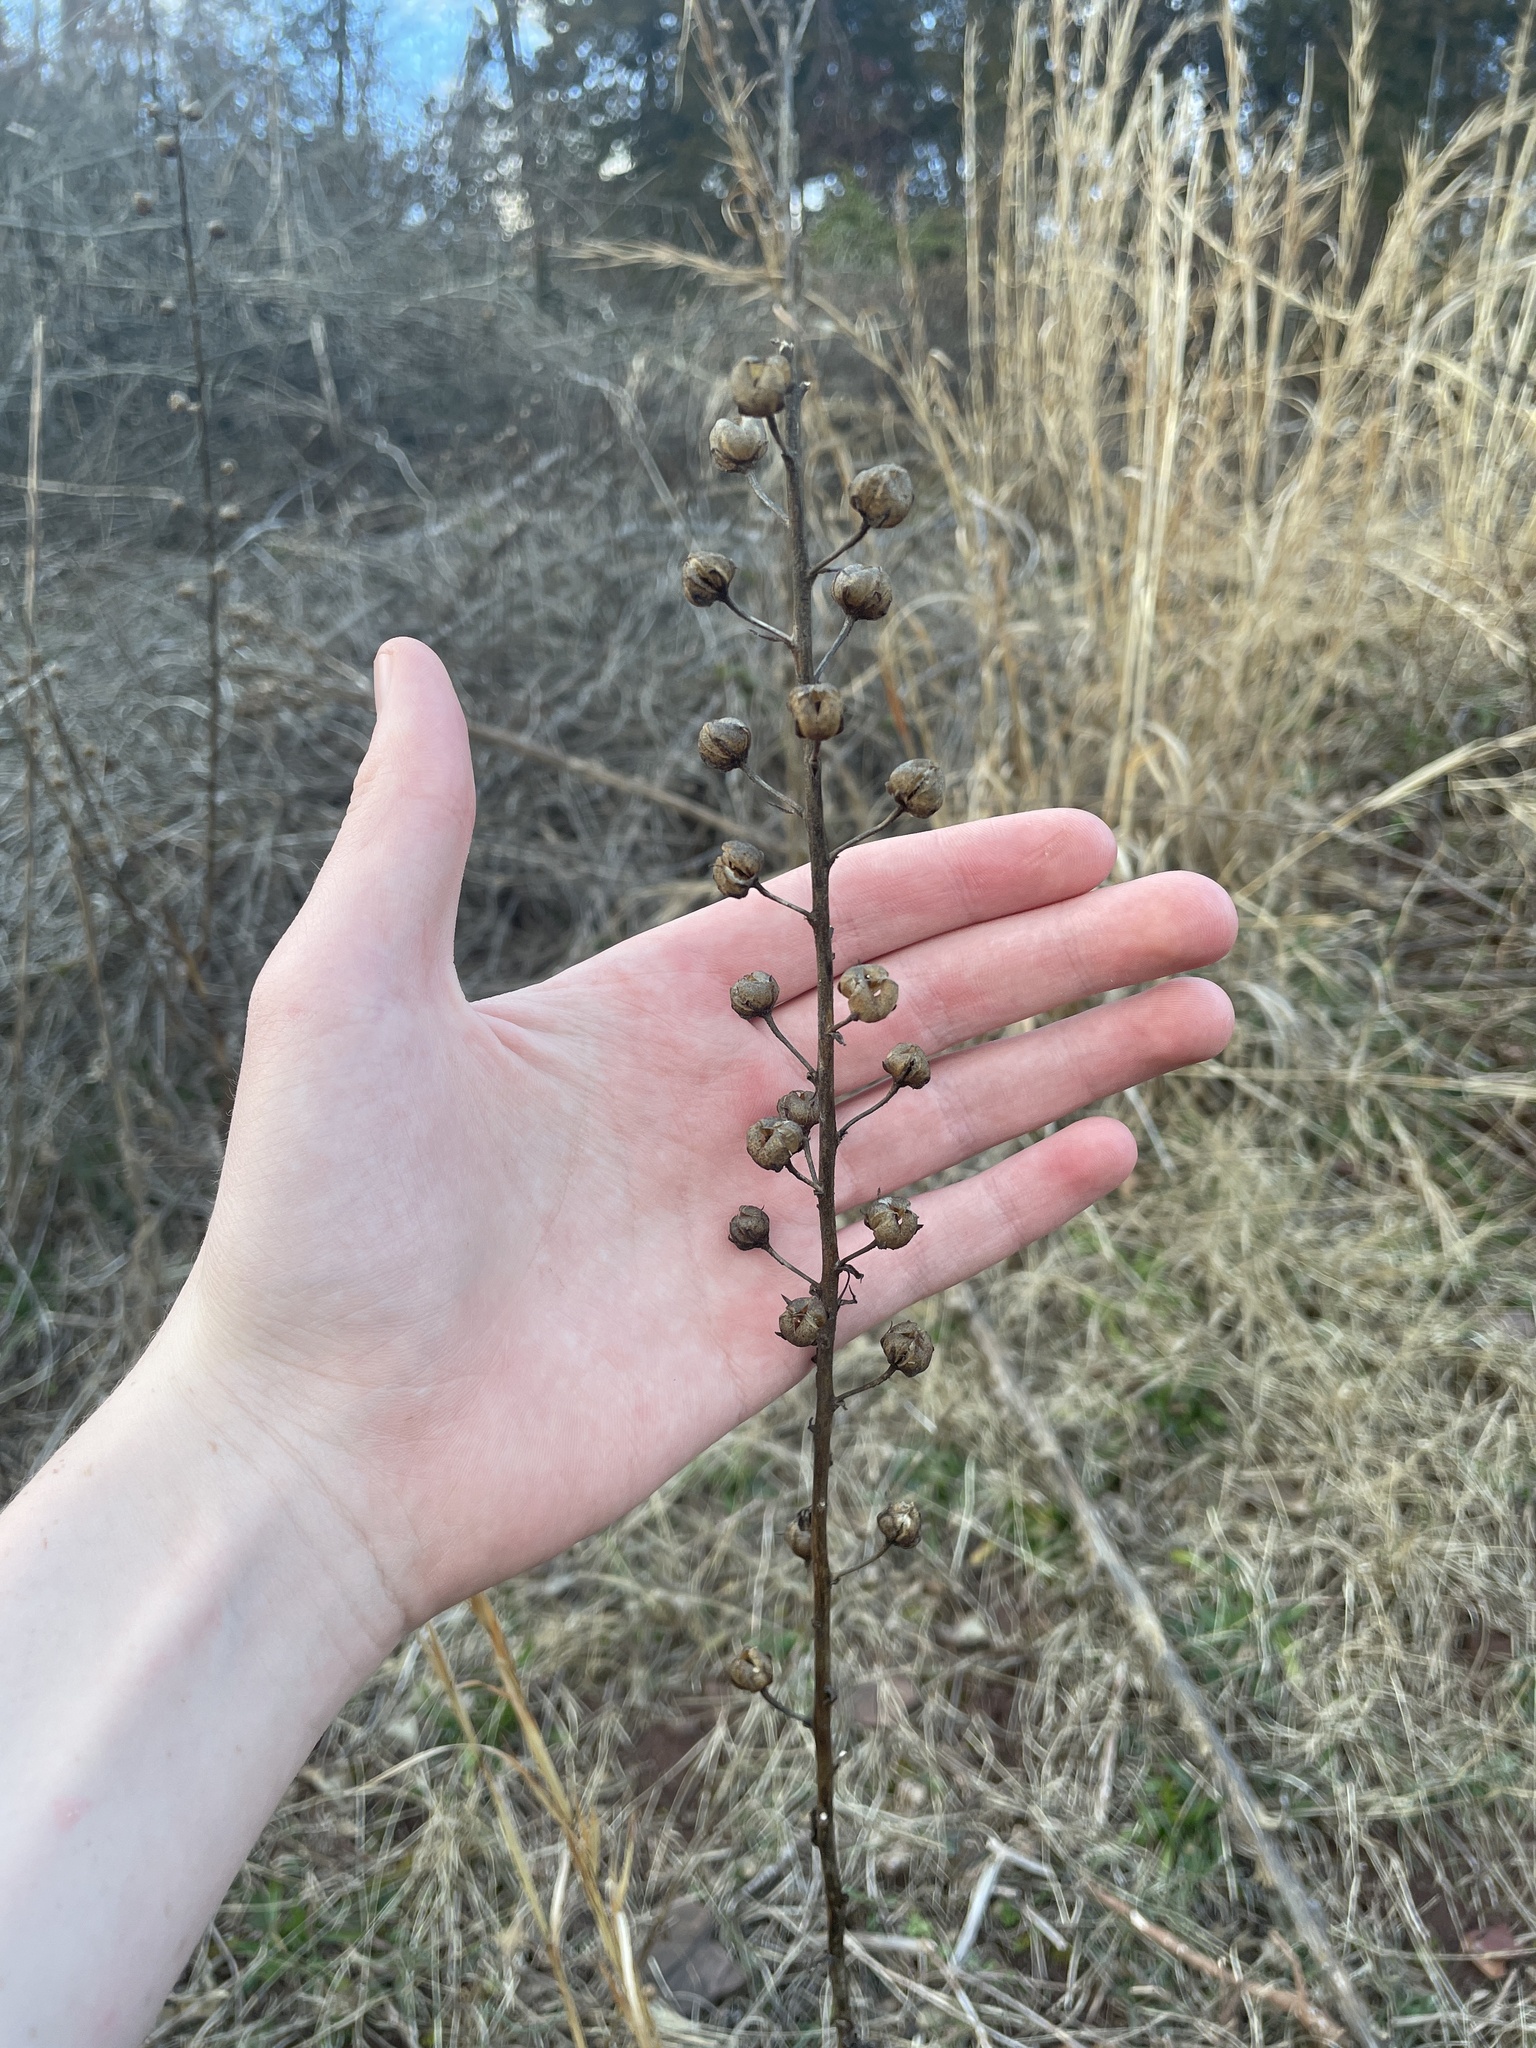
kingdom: Plantae
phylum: Tracheophyta
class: Magnoliopsida
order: Lamiales
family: Scrophulariaceae
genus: Verbascum
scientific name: Verbascum blattaria
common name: Moth mullein
